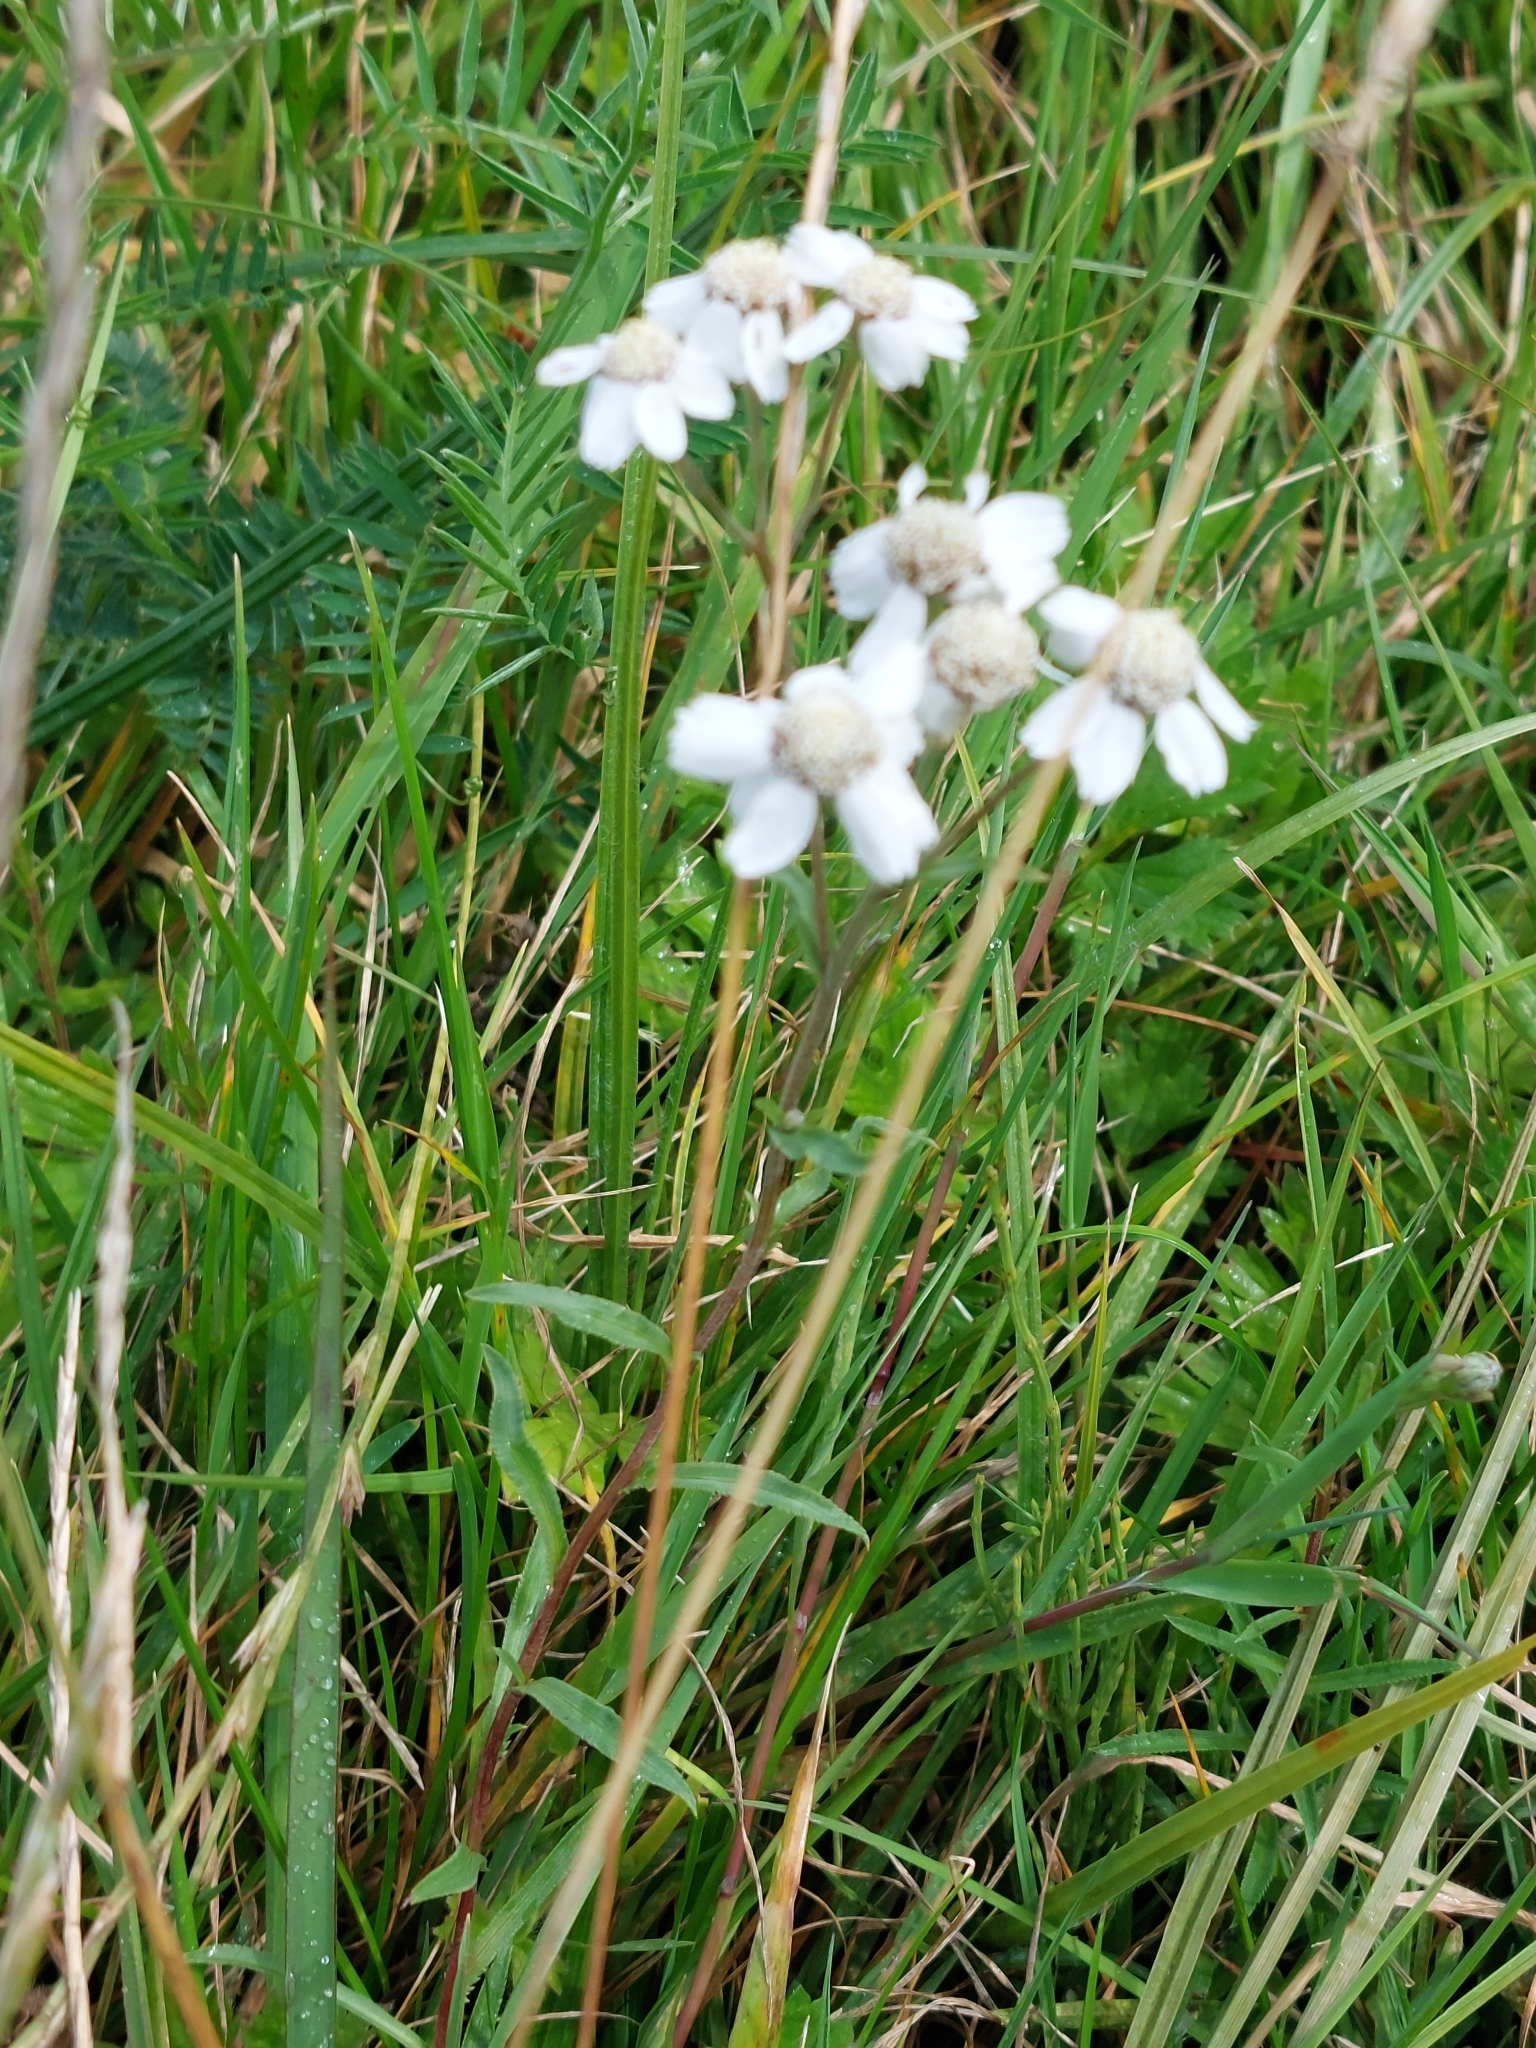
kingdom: Plantae
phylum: Tracheophyta
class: Magnoliopsida
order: Asterales
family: Asteraceae
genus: Achillea
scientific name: Achillea ptarmica
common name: Sneezeweed
